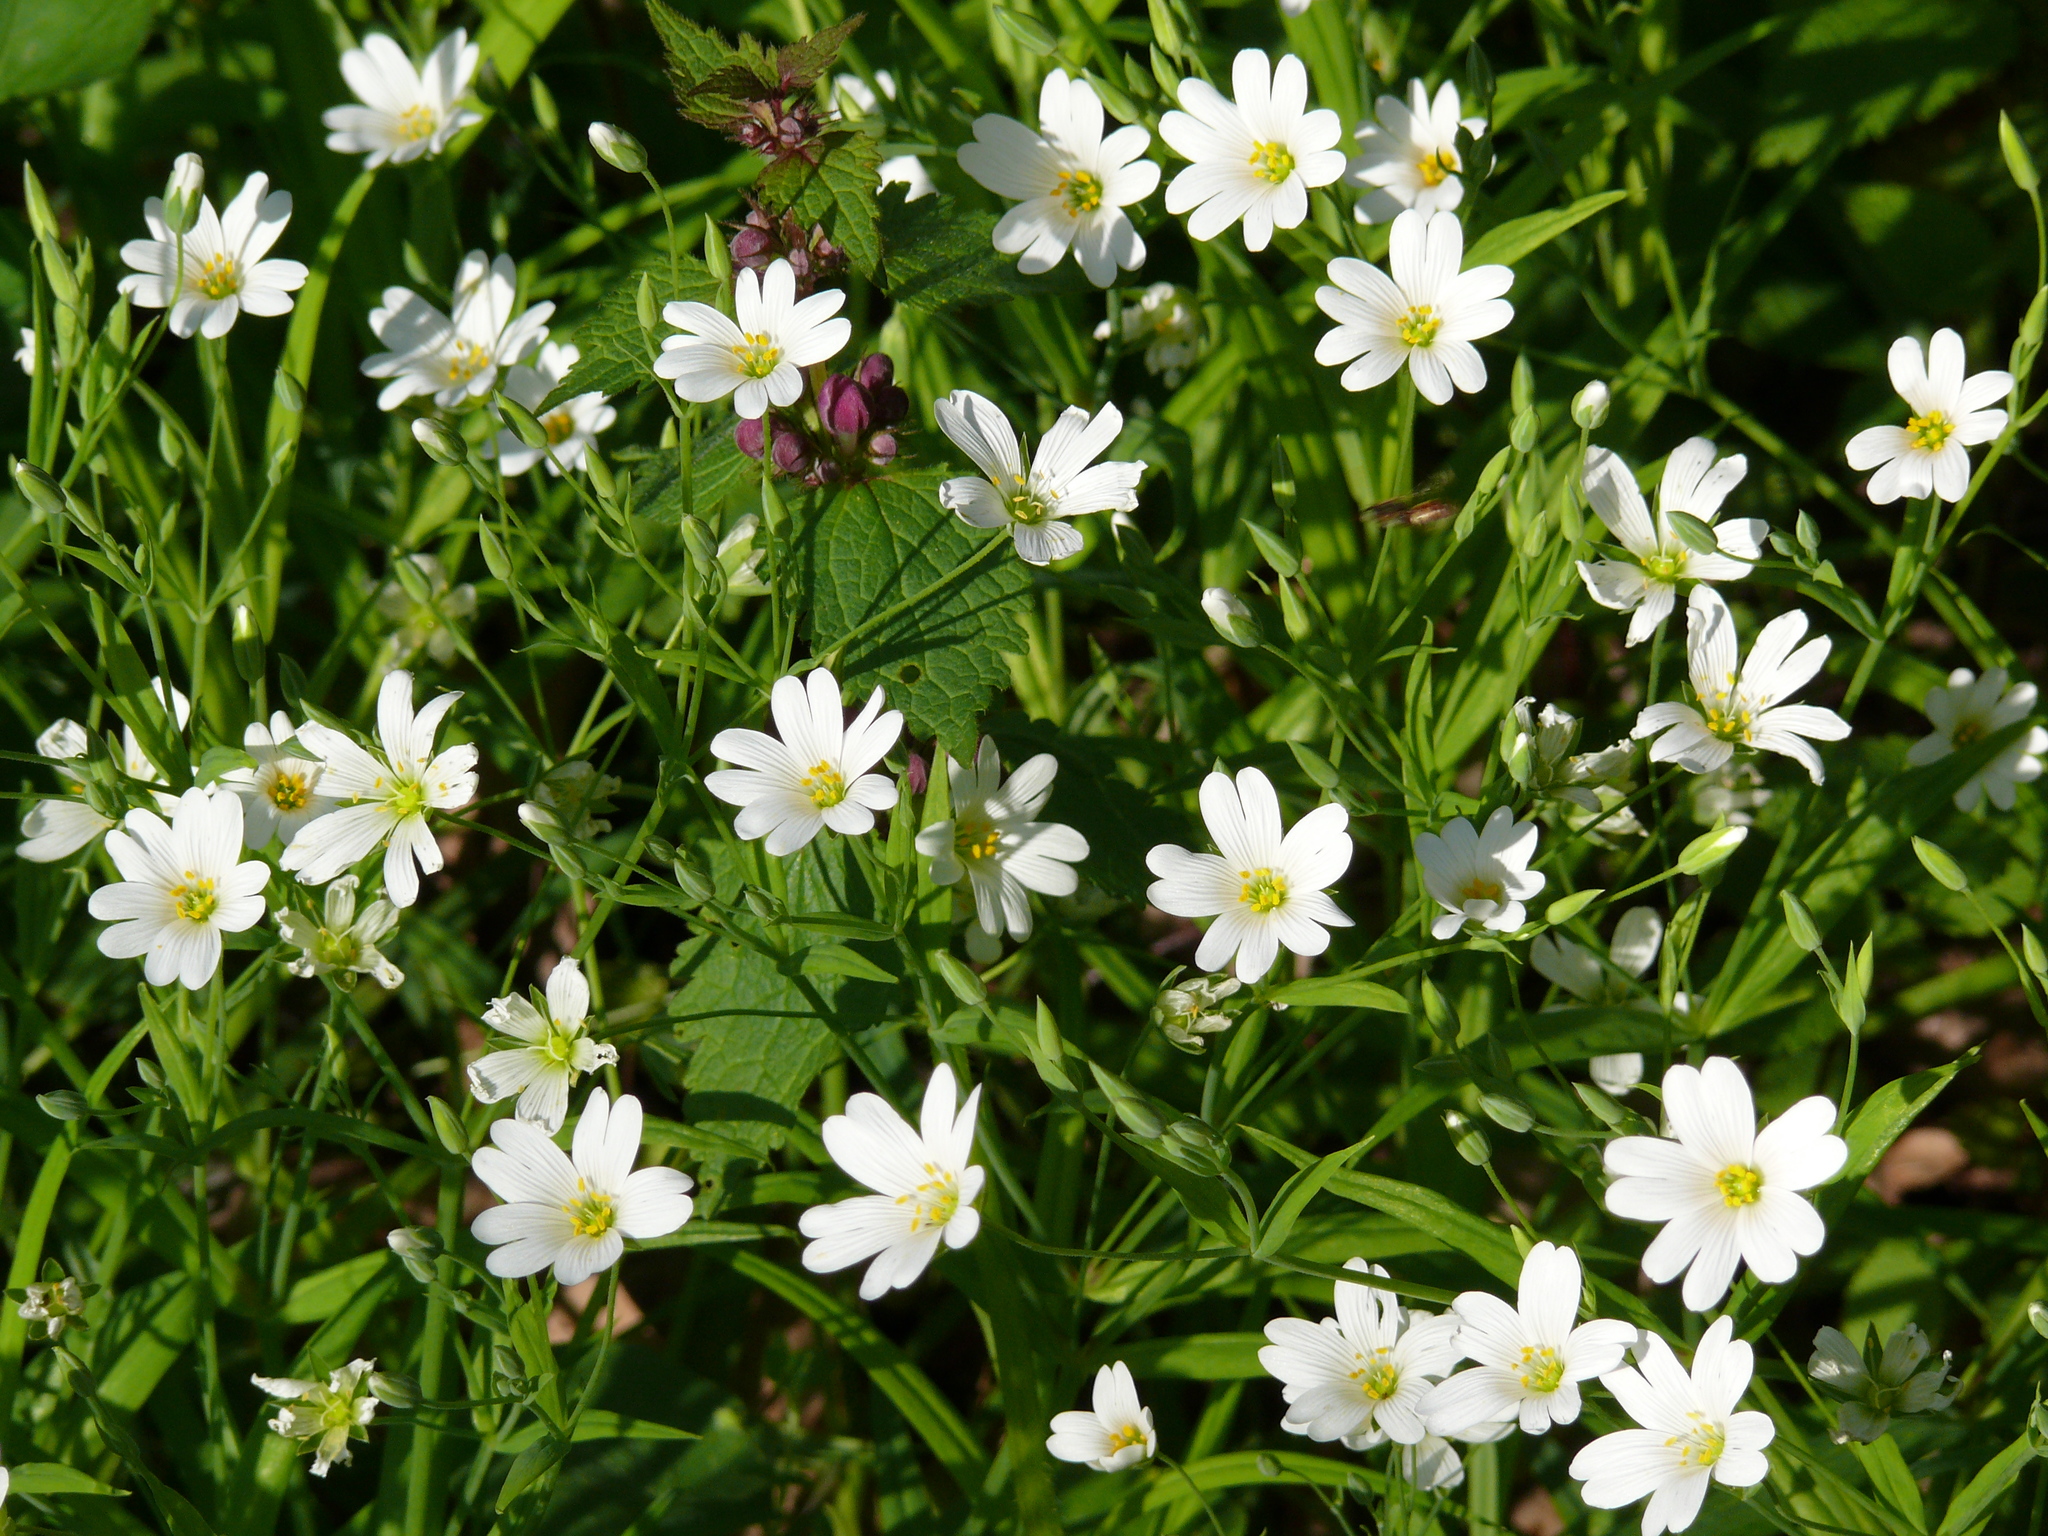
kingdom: Plantae
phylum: Tracheophyta
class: Magnoliopsida
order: Caryophyllales
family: Caryophyllaceae
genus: Rabelera
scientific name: Rabelera holostea
